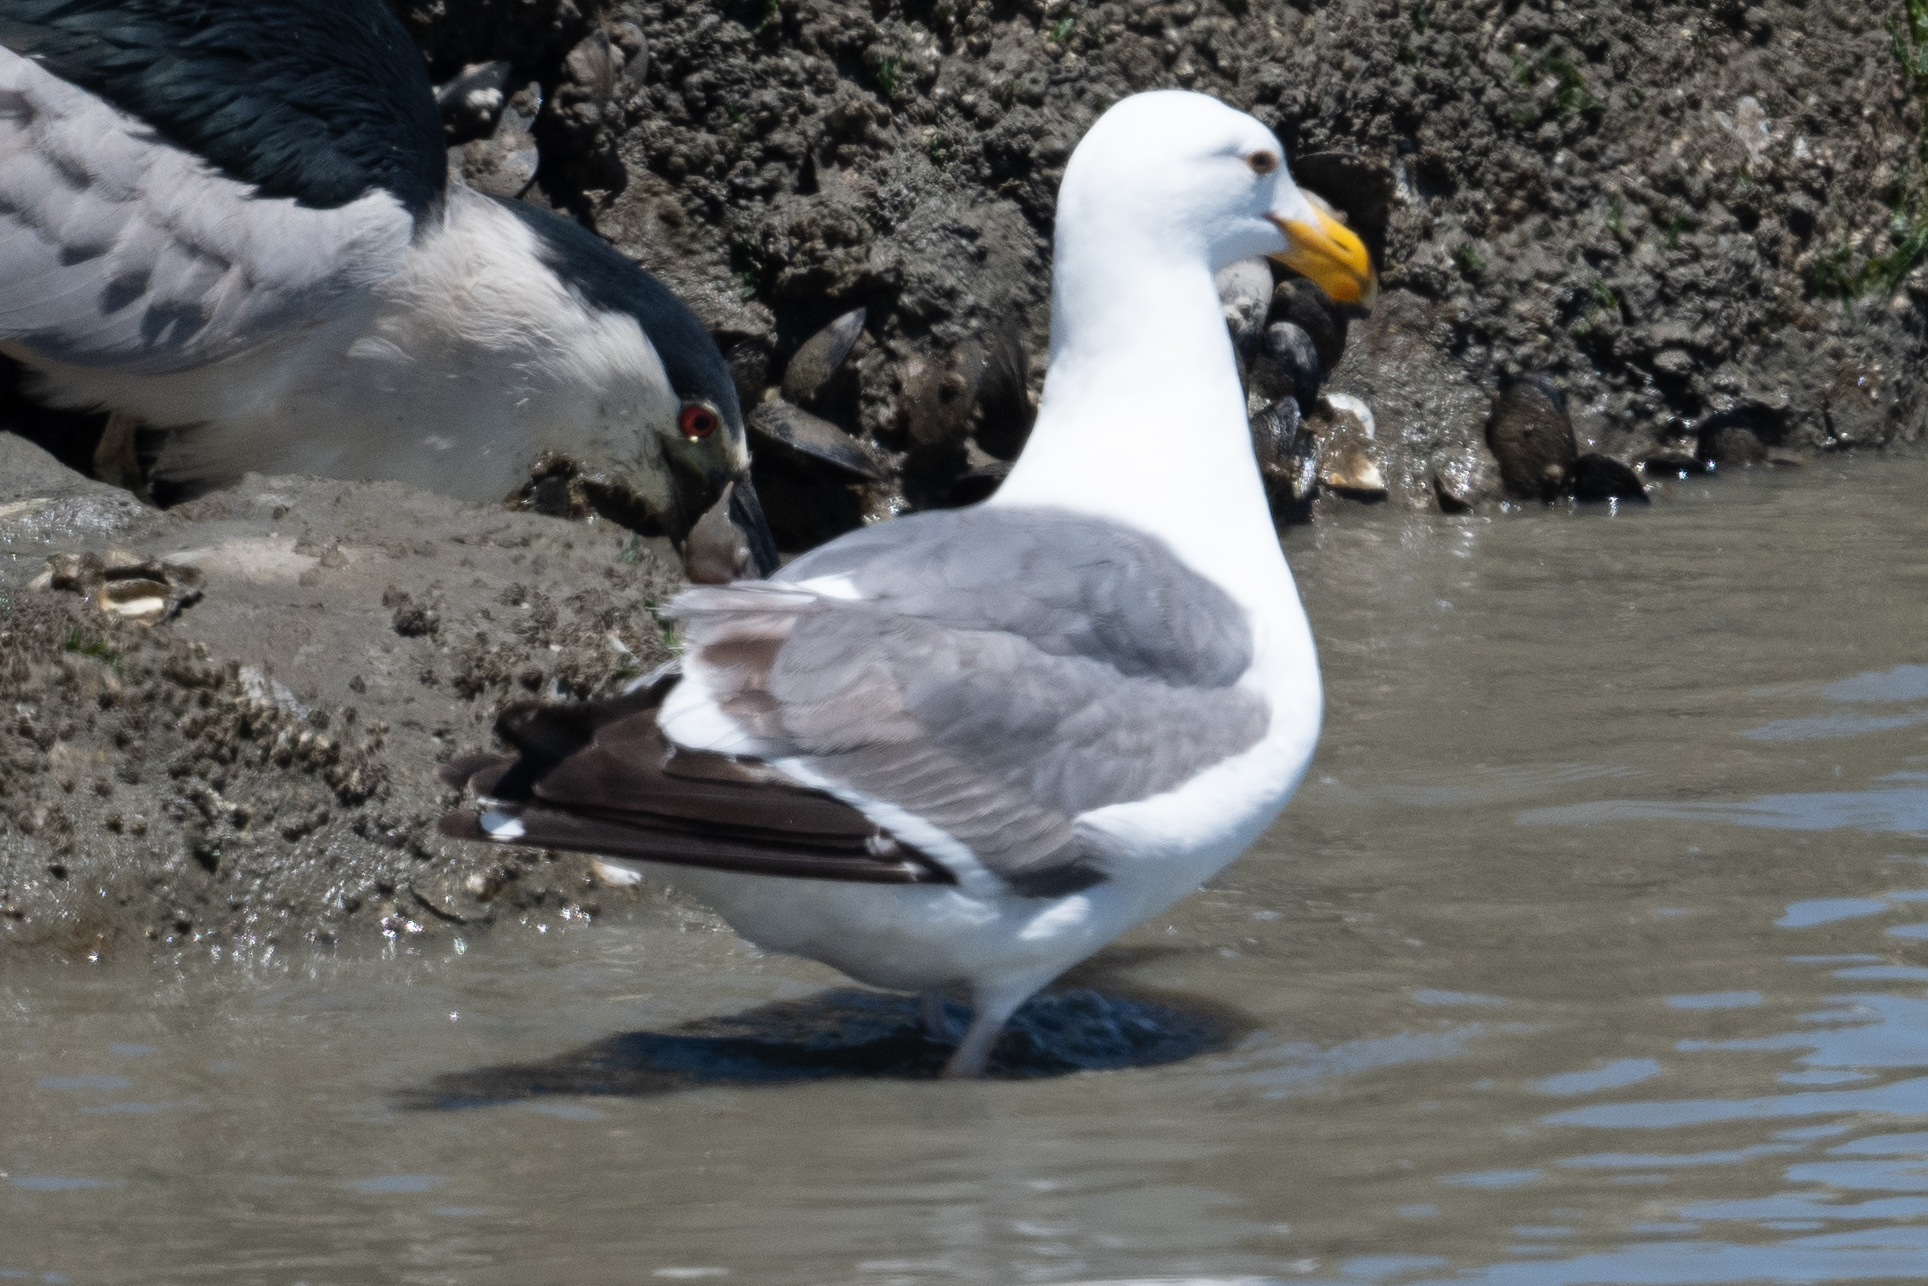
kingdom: Animalia
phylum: Chordata
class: Aves
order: Charadriiformes
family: Laridae
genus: Larus
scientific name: Larus occidentalis
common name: Western gull
